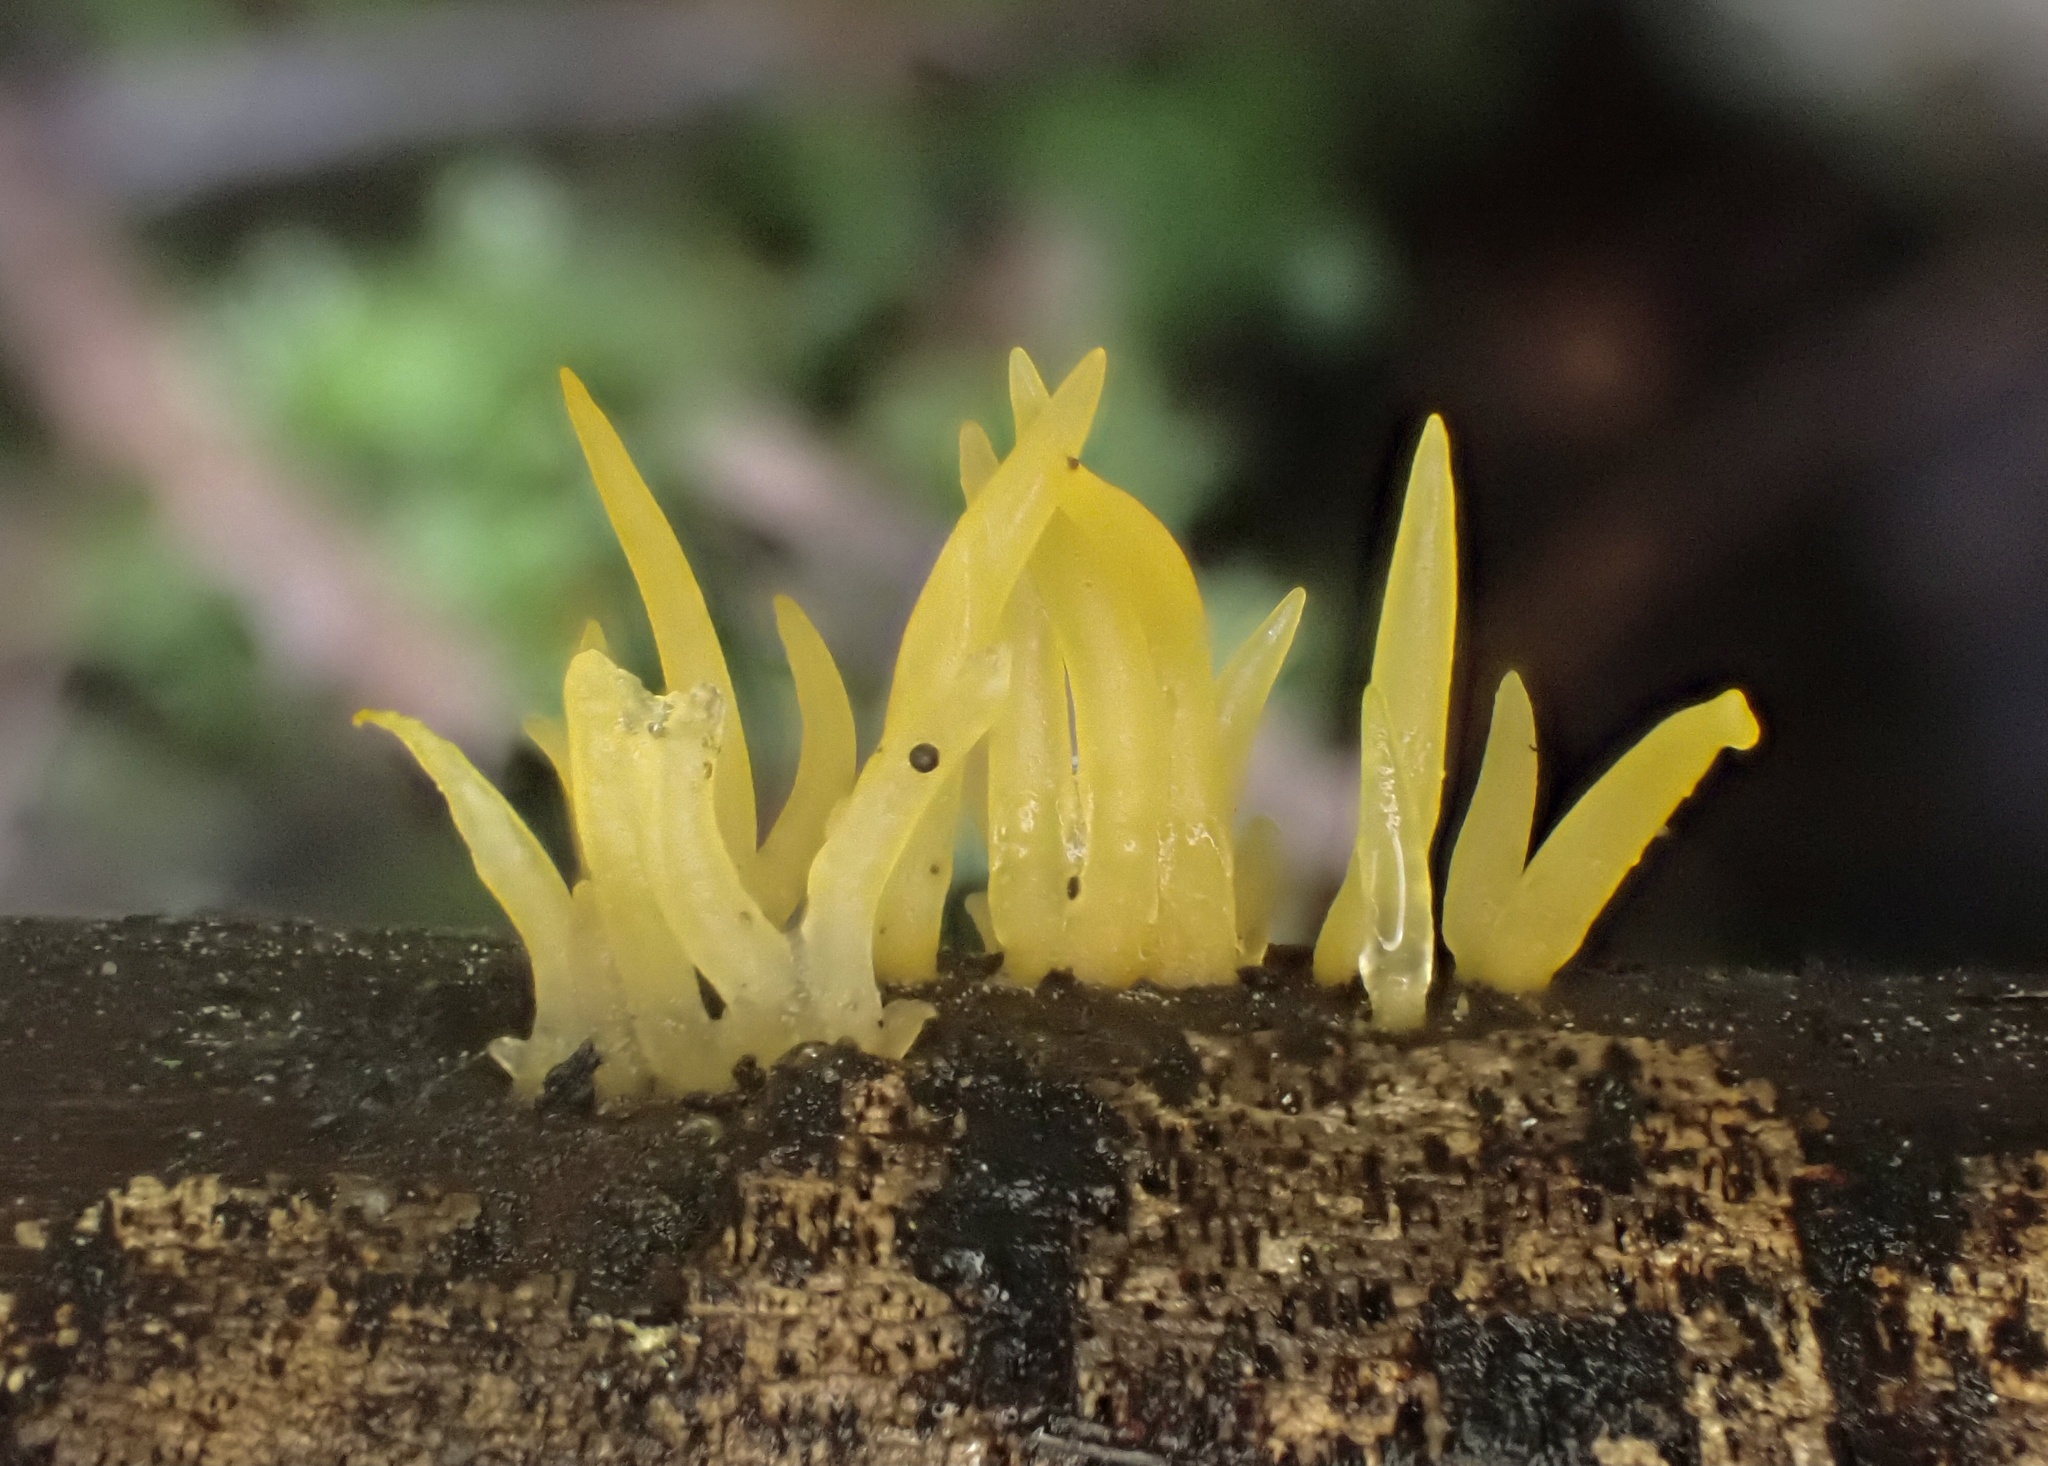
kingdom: Fungi
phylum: Basidiomycota
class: Dacrymycetes
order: Dacrymycetales
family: Dacrymycetaceae
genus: Calocera
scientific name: Calocera cornea
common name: Small stagshorn
